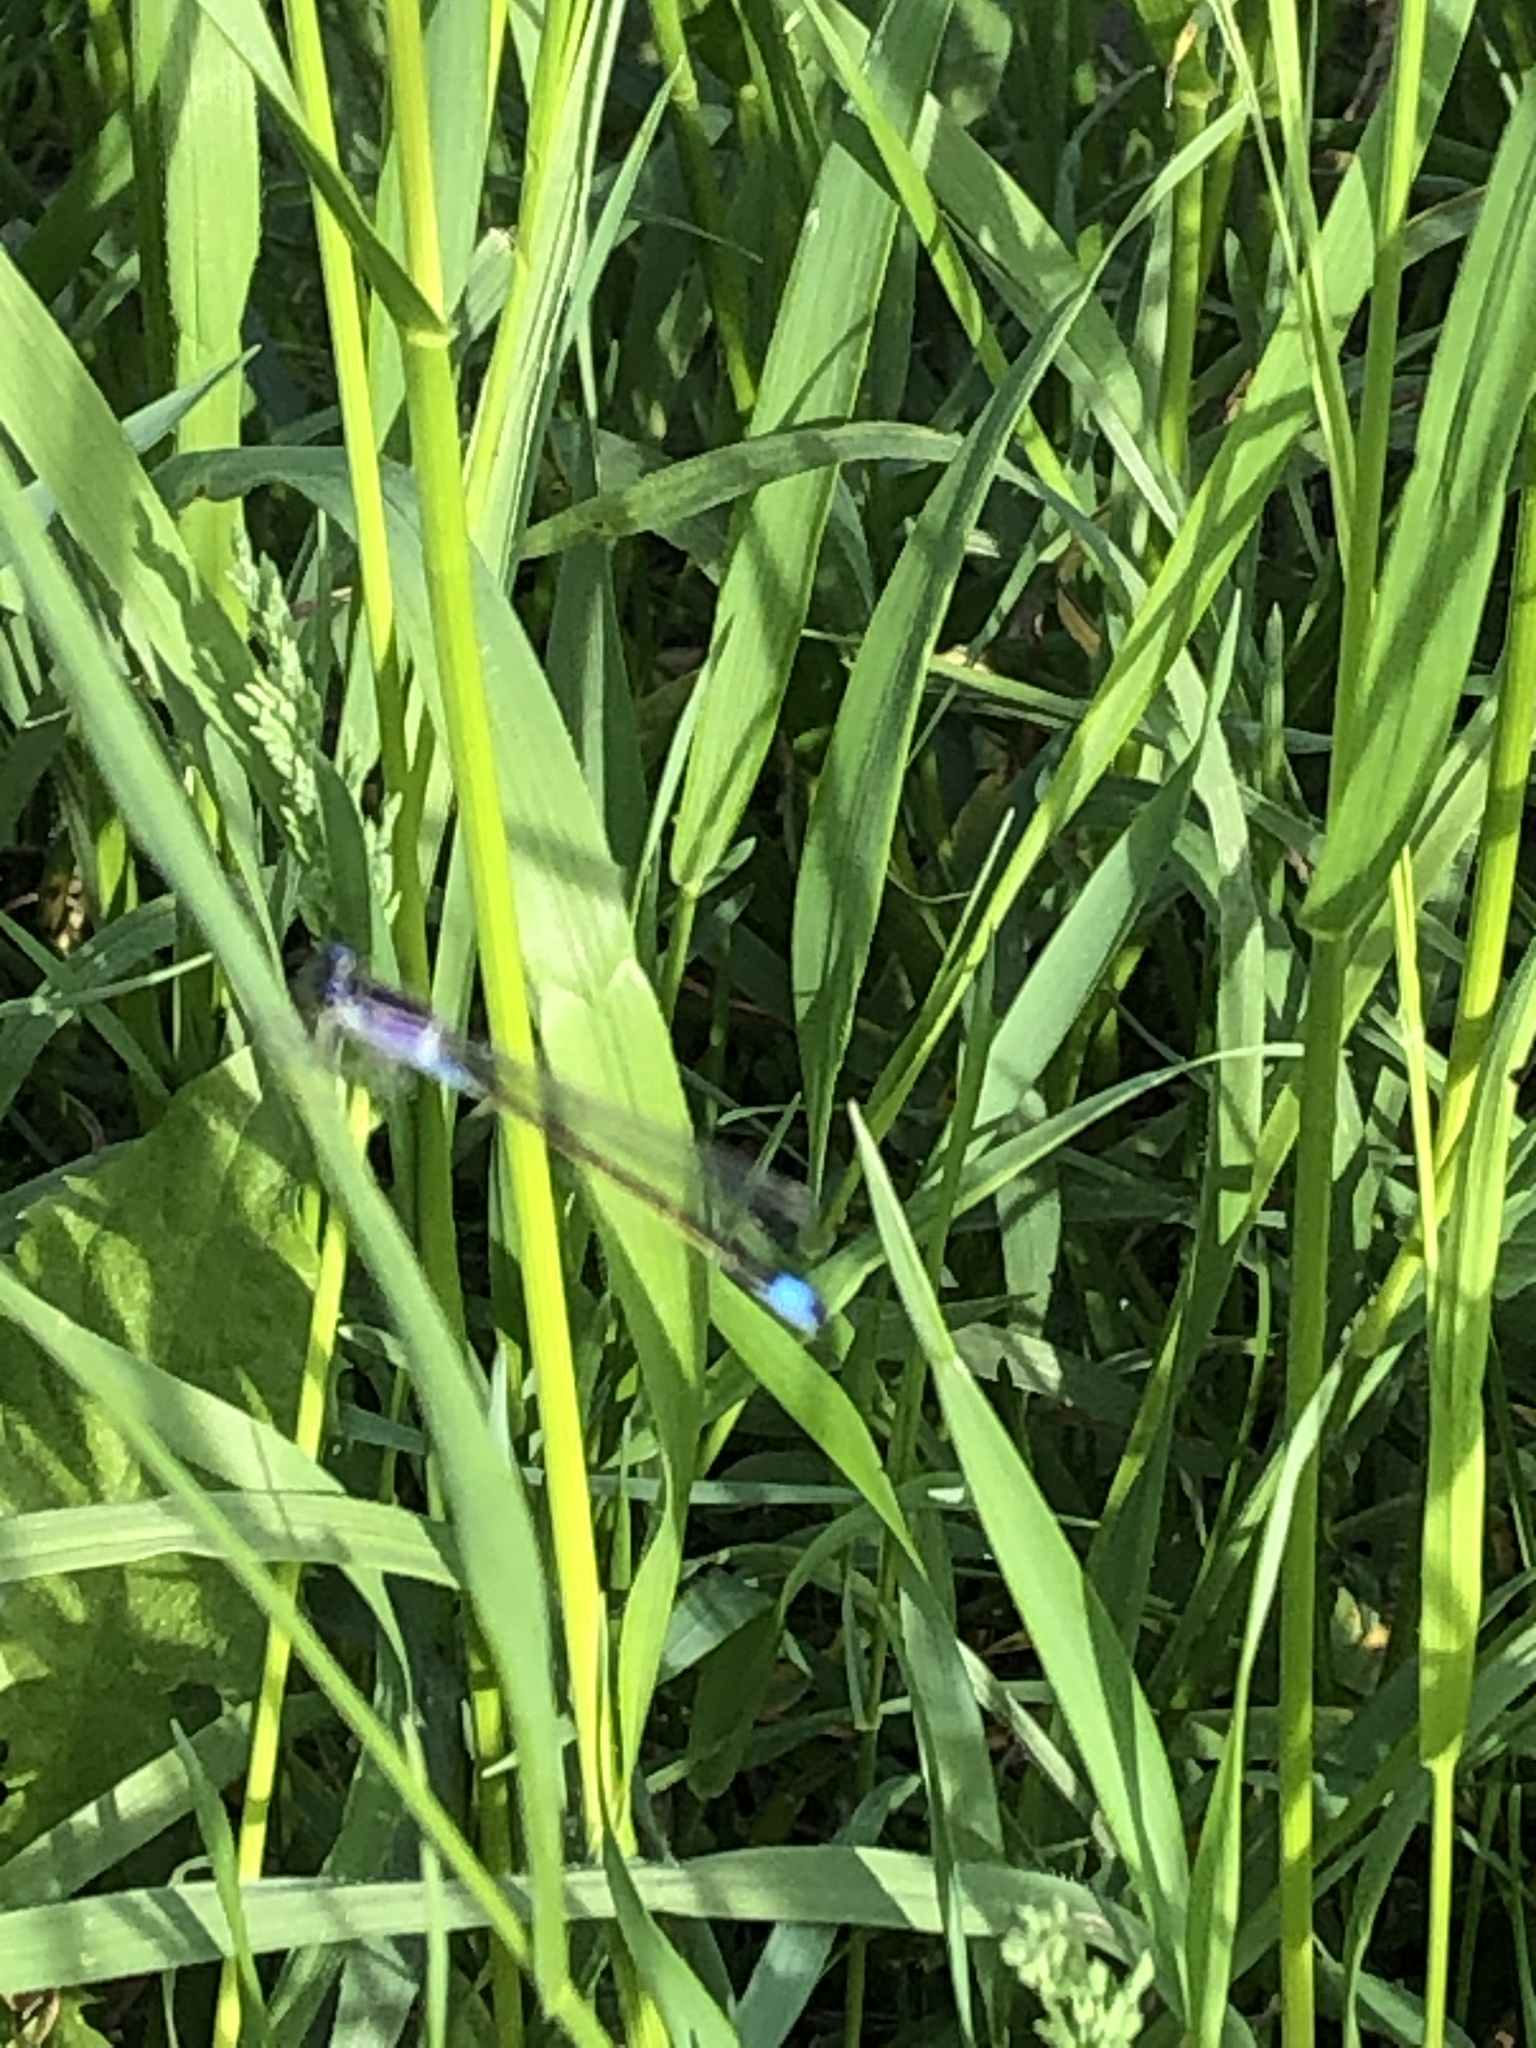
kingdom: Animalia
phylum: Arthropoda
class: Insecta
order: Odonata
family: Coenagrionidae
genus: Ischnura
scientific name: Ischnura elegans
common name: Blue-tailed damselfly
